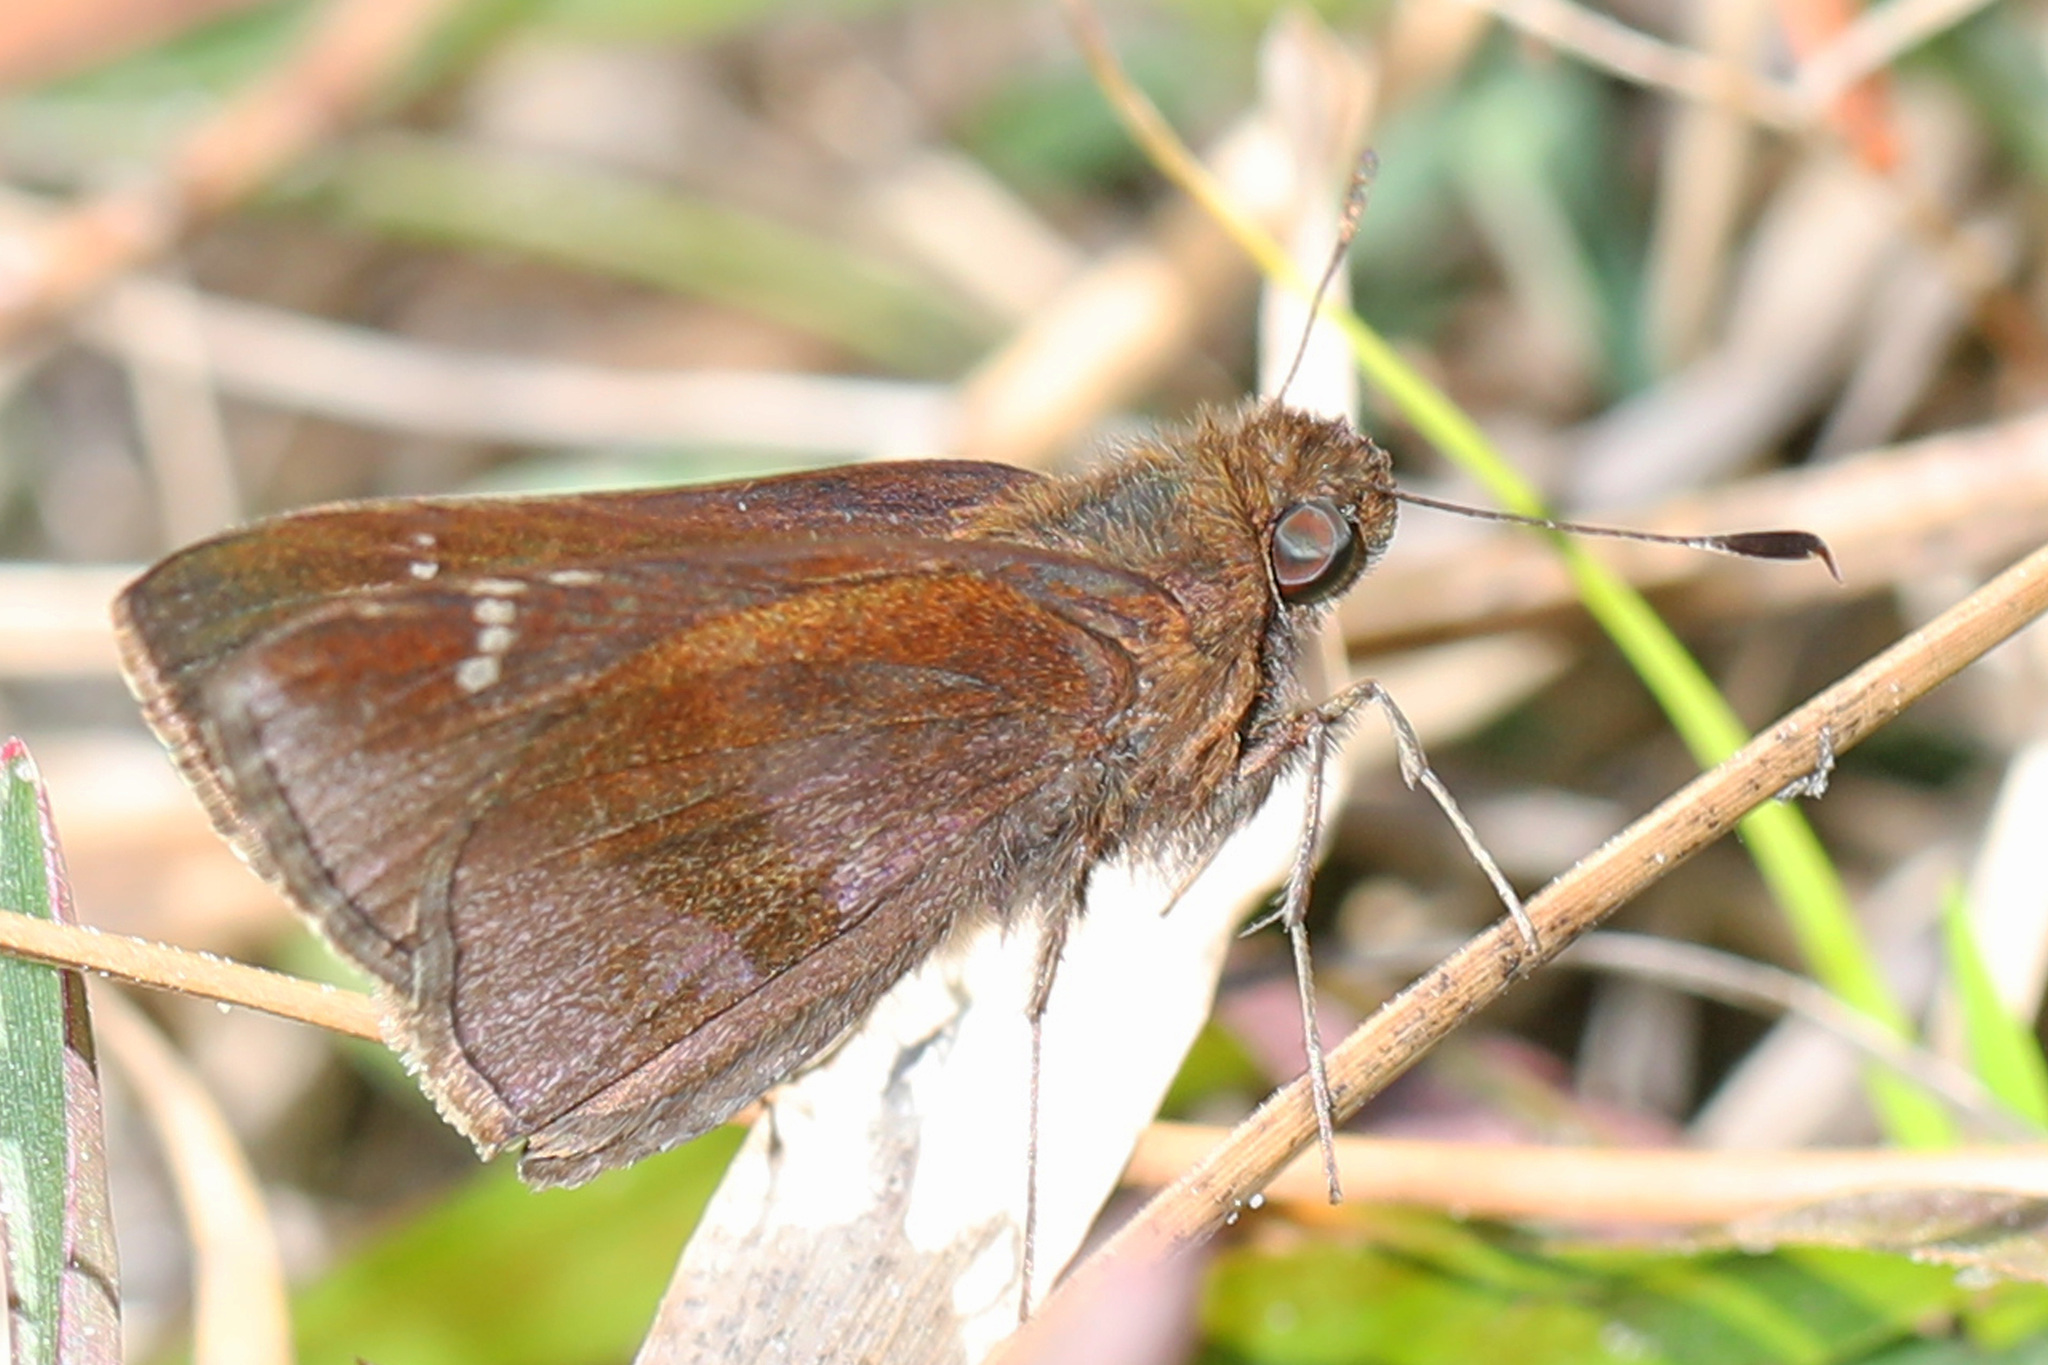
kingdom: Animalia
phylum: Arthropoda
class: Insecta
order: Lepidoptera
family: Hesperiidae
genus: Lerema
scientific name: Lerema accius
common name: Clouded skipper
